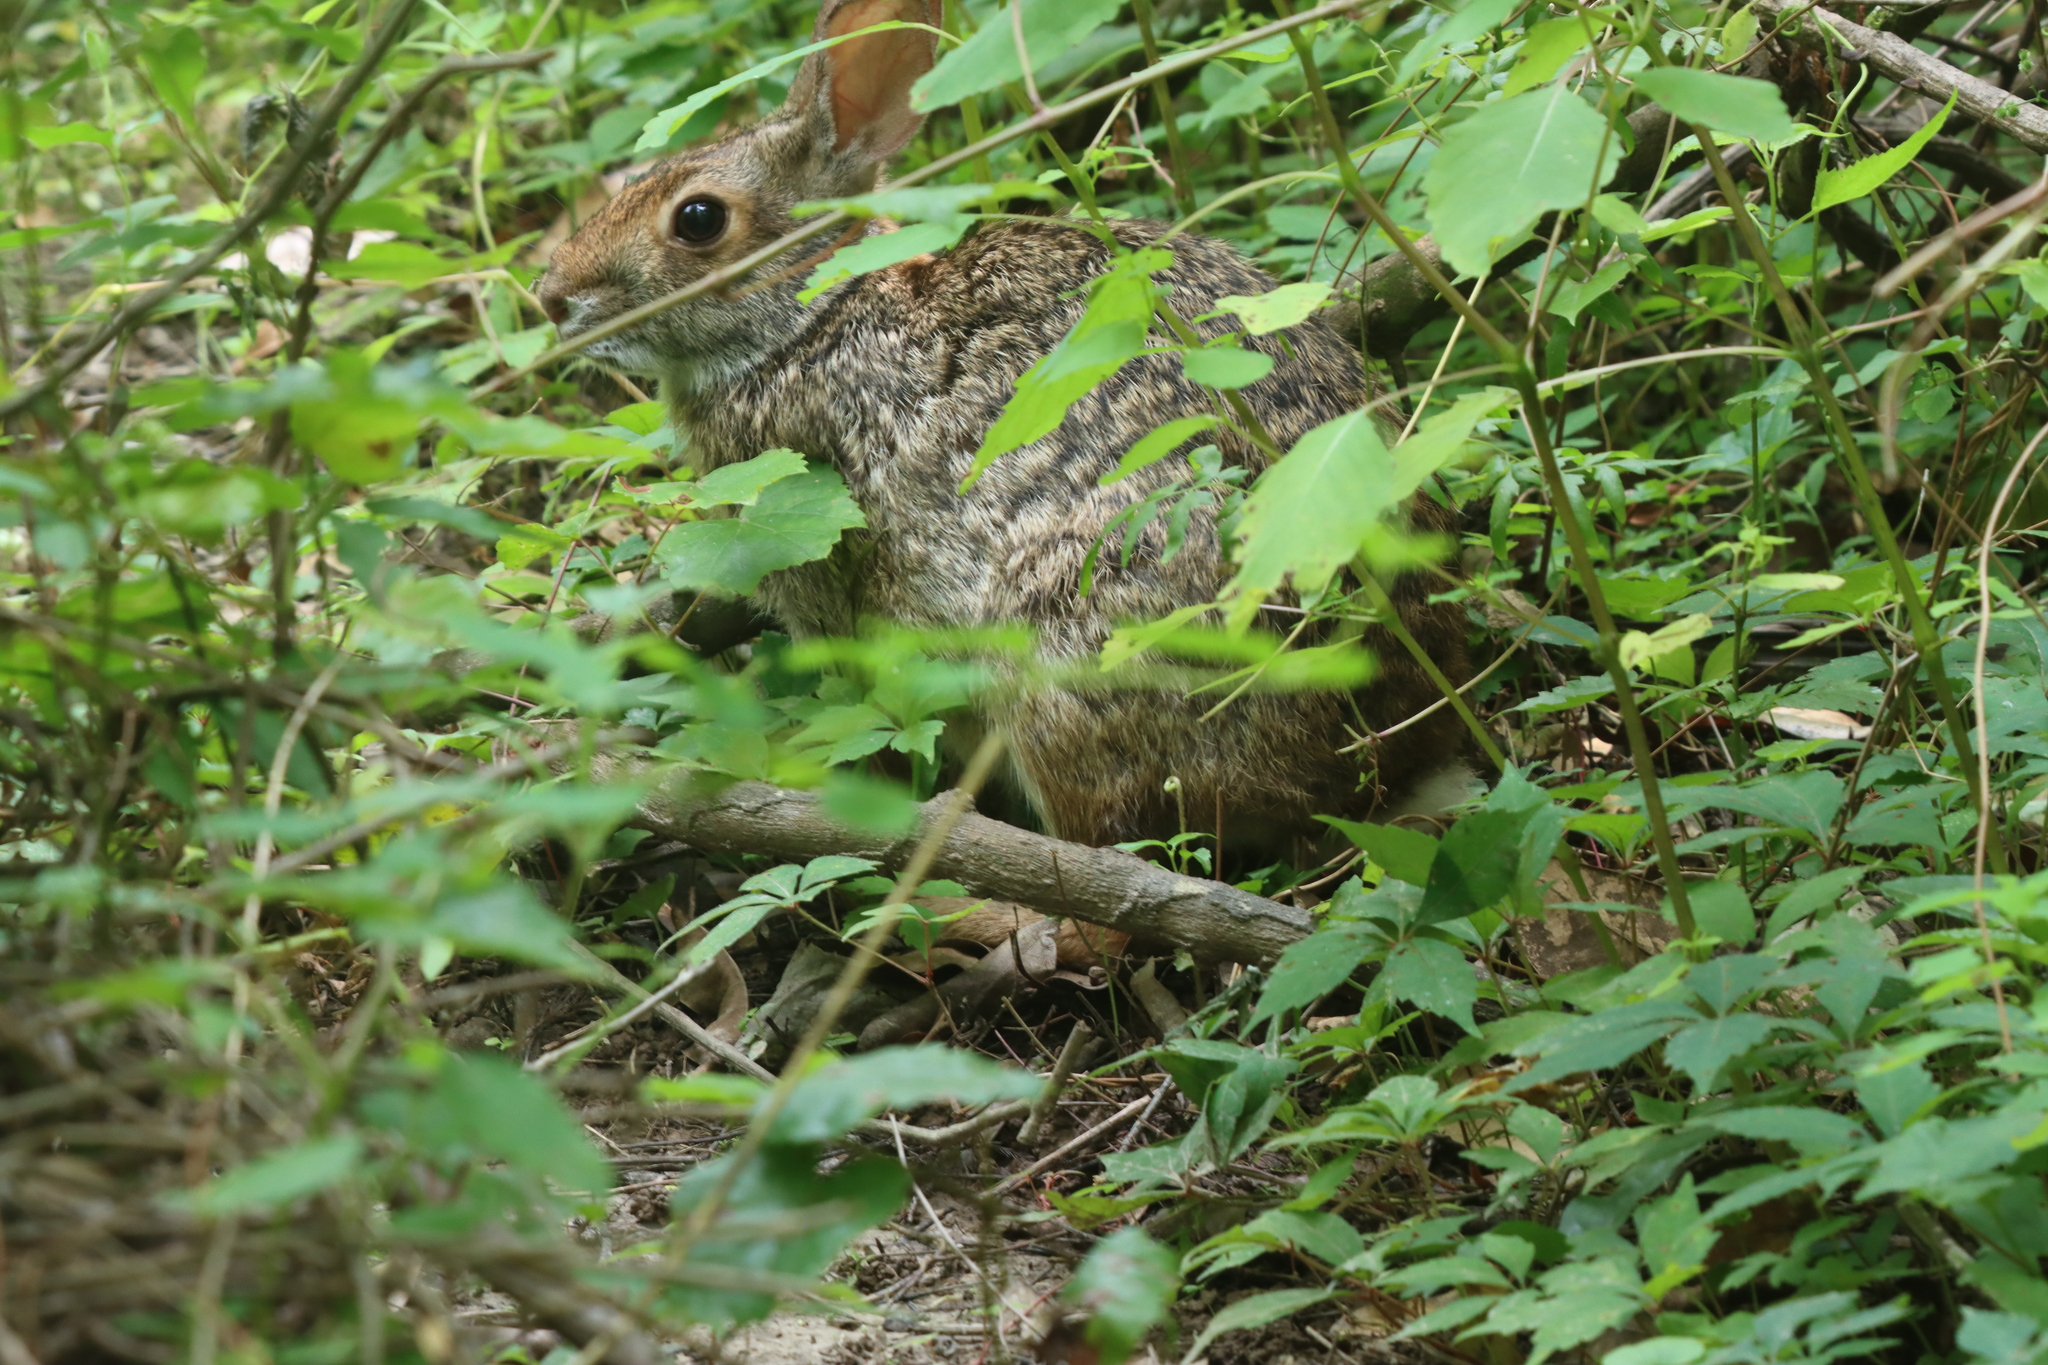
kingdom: Animalia
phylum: Chordata
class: Mammalia
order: Lagomorpha
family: Leporidae
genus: Sylvilagus
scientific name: Sylvilagus aquaticus
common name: Swamp rabbit
